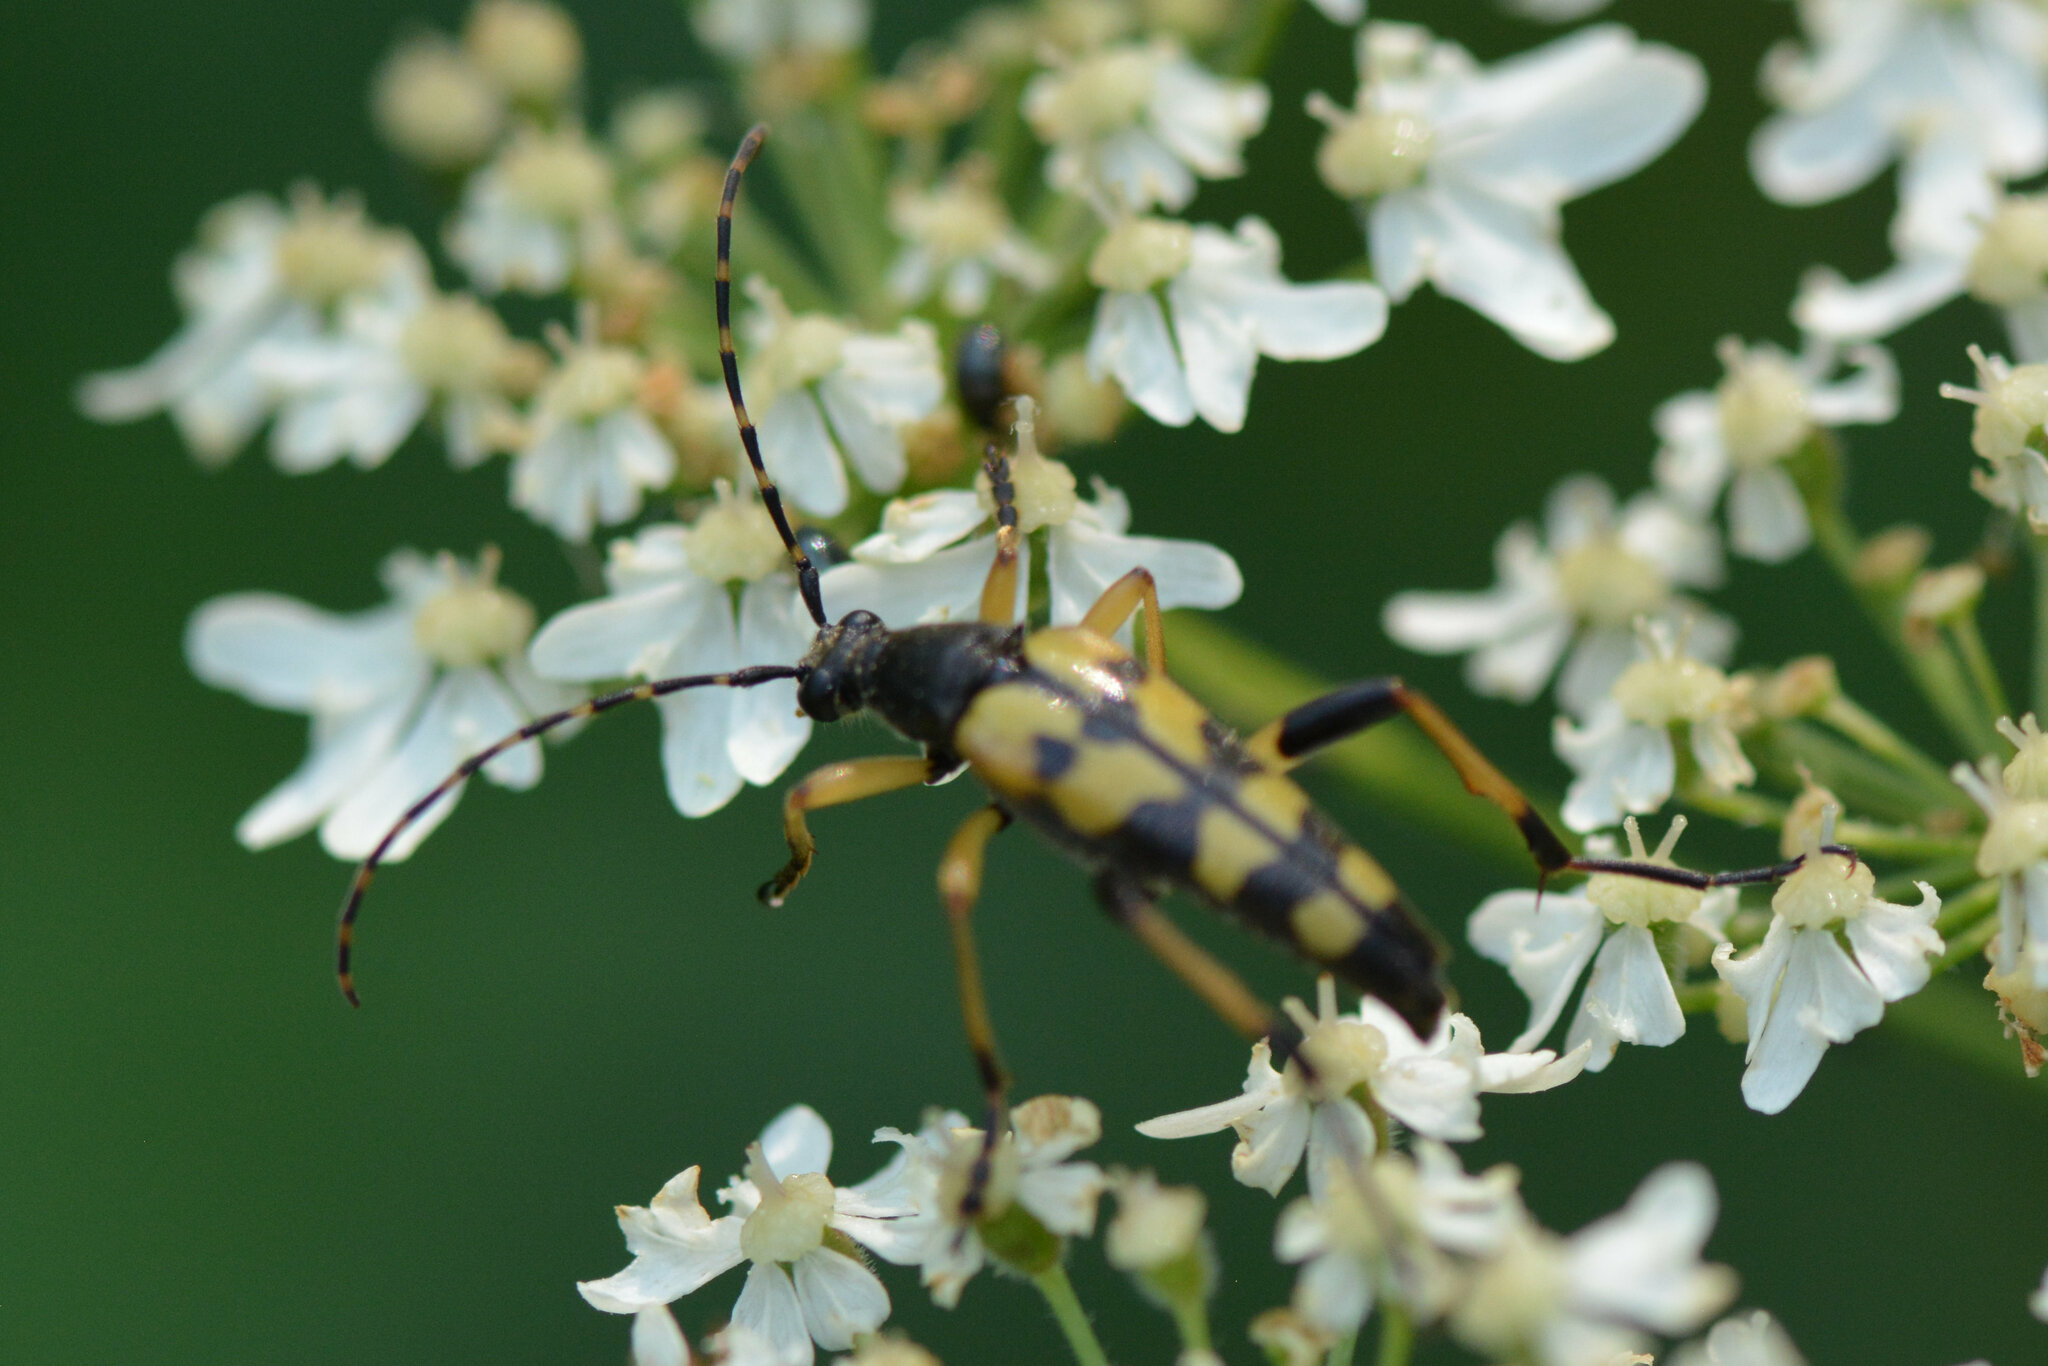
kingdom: Animalia
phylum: Arthropoda
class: Insecta
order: Coleoptera
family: Cerambycidae
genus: Rutpela
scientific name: Rutpela maculata
